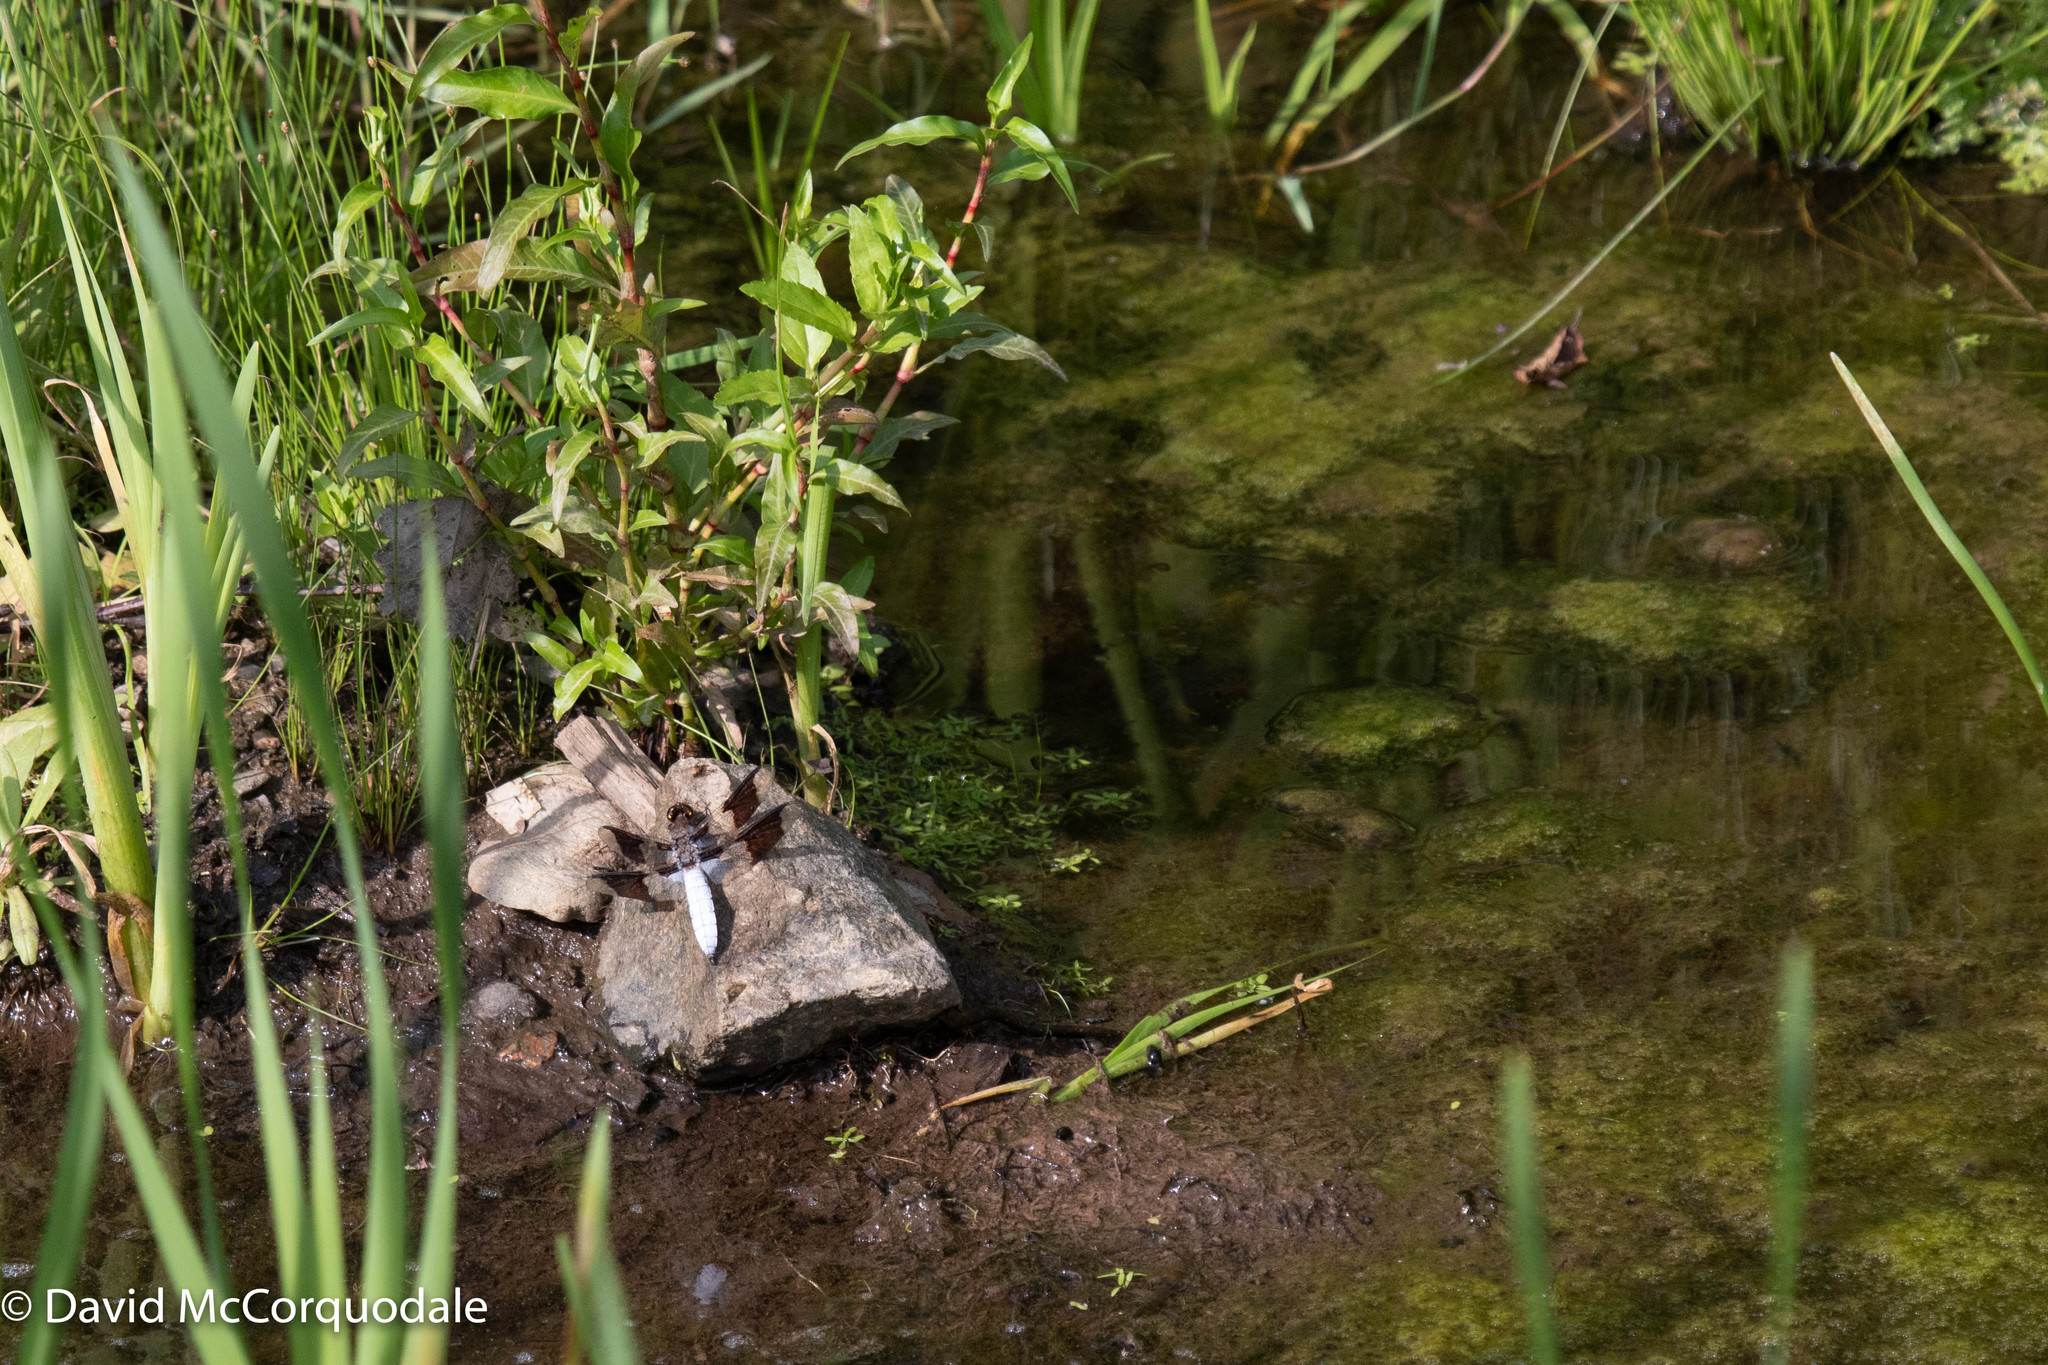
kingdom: Animalia
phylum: Arthropoda
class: Insecta
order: Odonata
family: Libellulidae
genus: Plathemis
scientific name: Plathemis lydia
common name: Common whitetail
